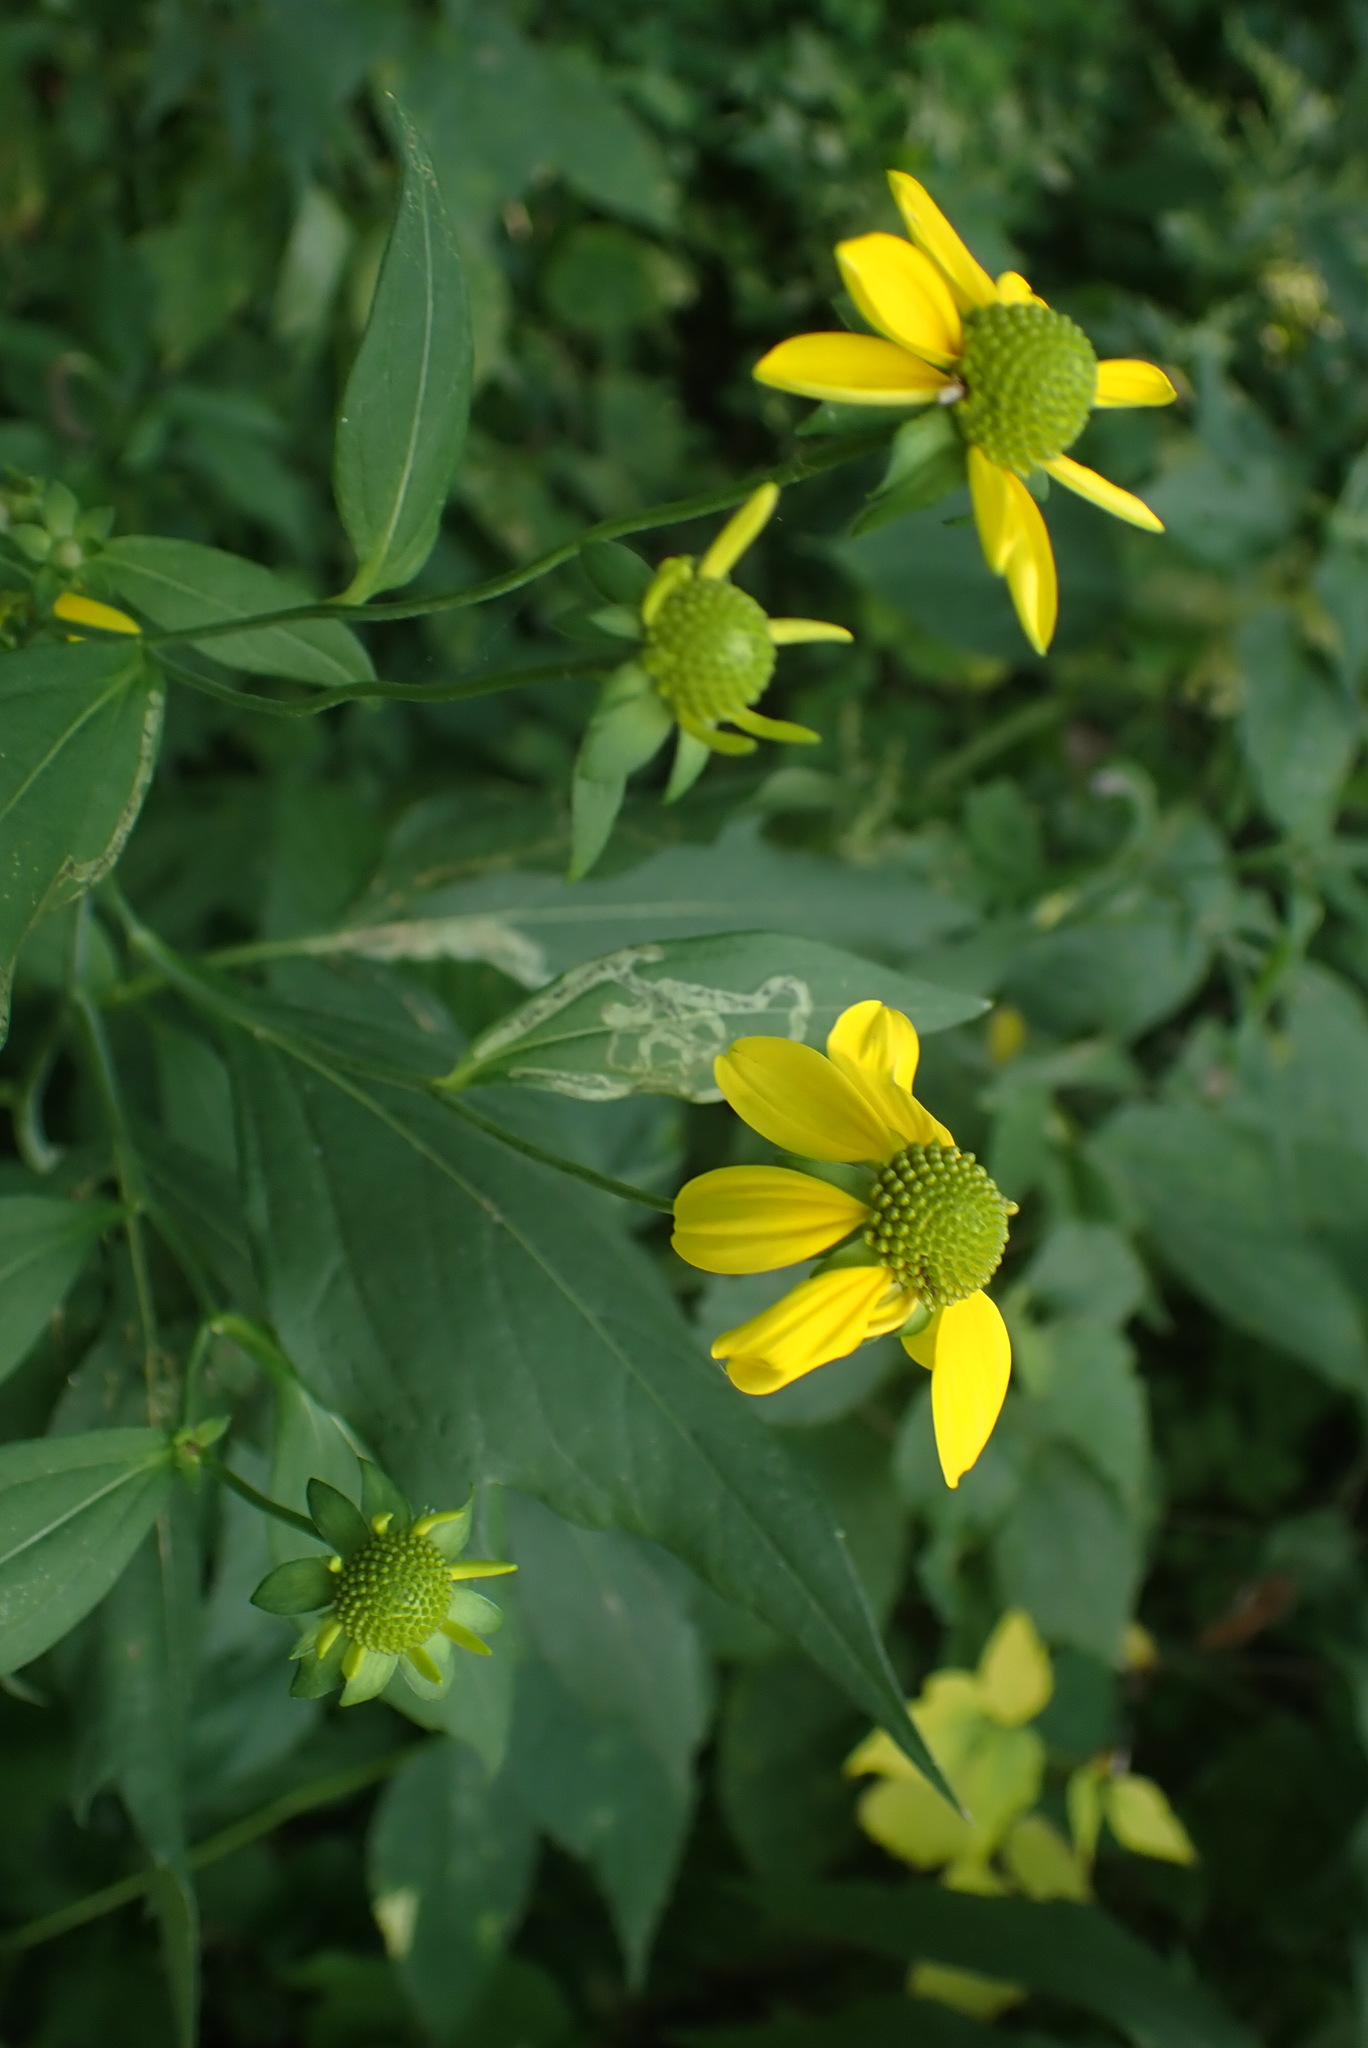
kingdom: Plantae
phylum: Tracheophyta
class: Magnoliopsida
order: Asterales
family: Asteraceae
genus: Rudbeckia
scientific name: Rudbeckia laciniata
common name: Coneflower
